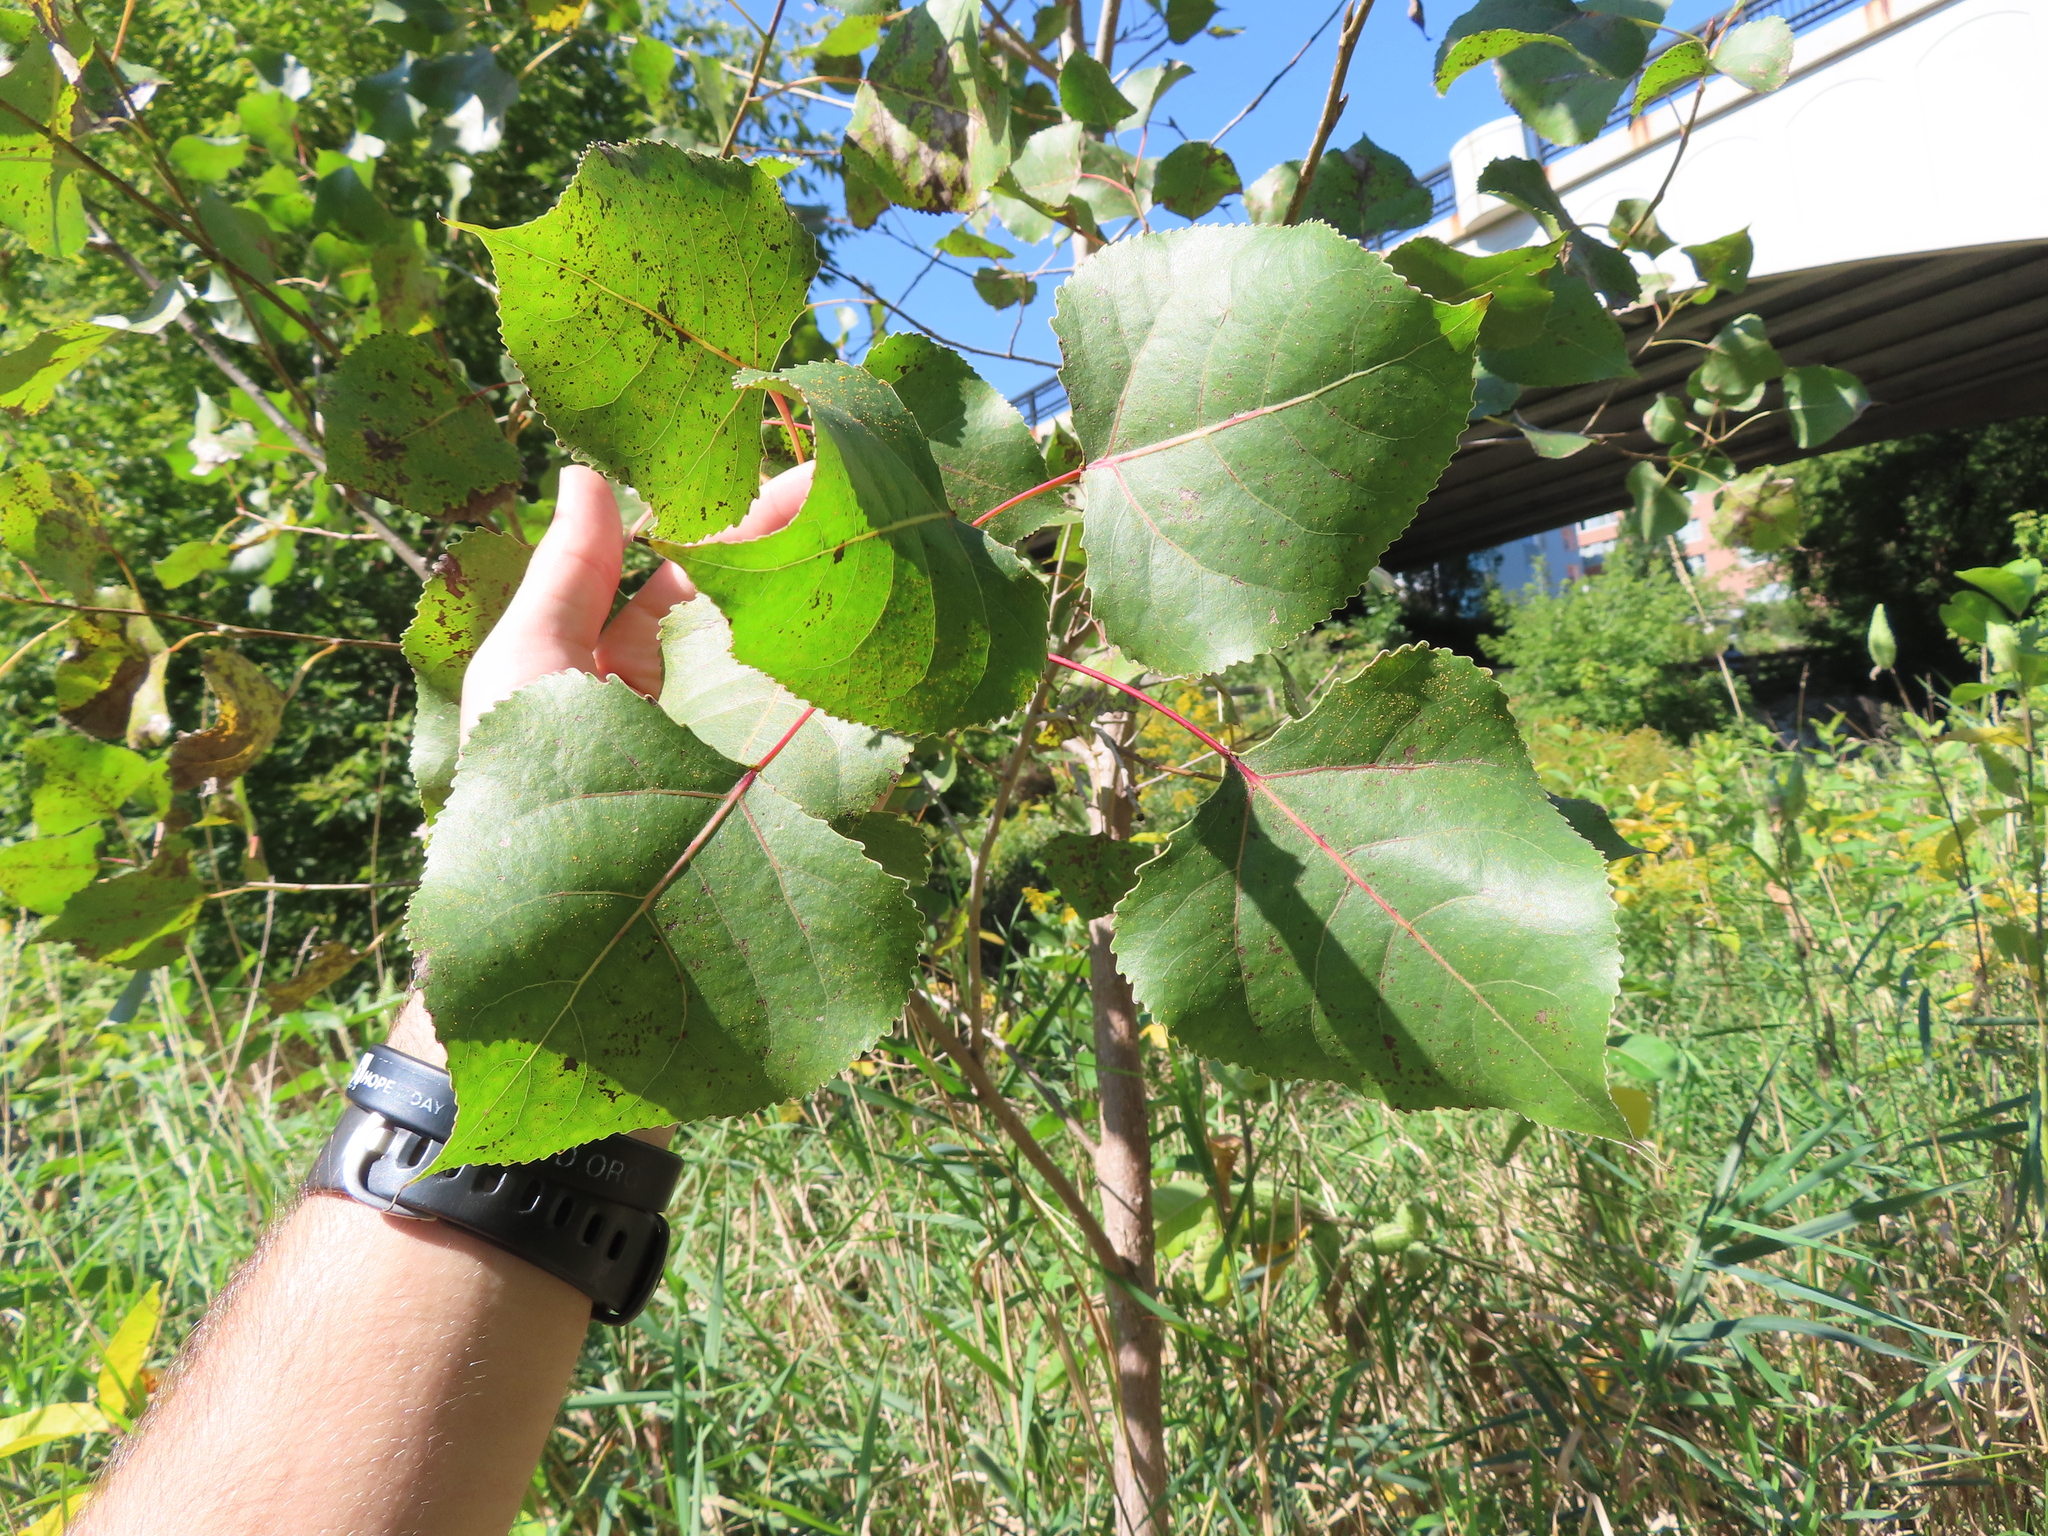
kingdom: Plantae
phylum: Tracheophyta
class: Magnoliopsida
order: Malpighiales
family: Salicaceae
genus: Populus
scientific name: Populus deltoides
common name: Eastern cottonwood
